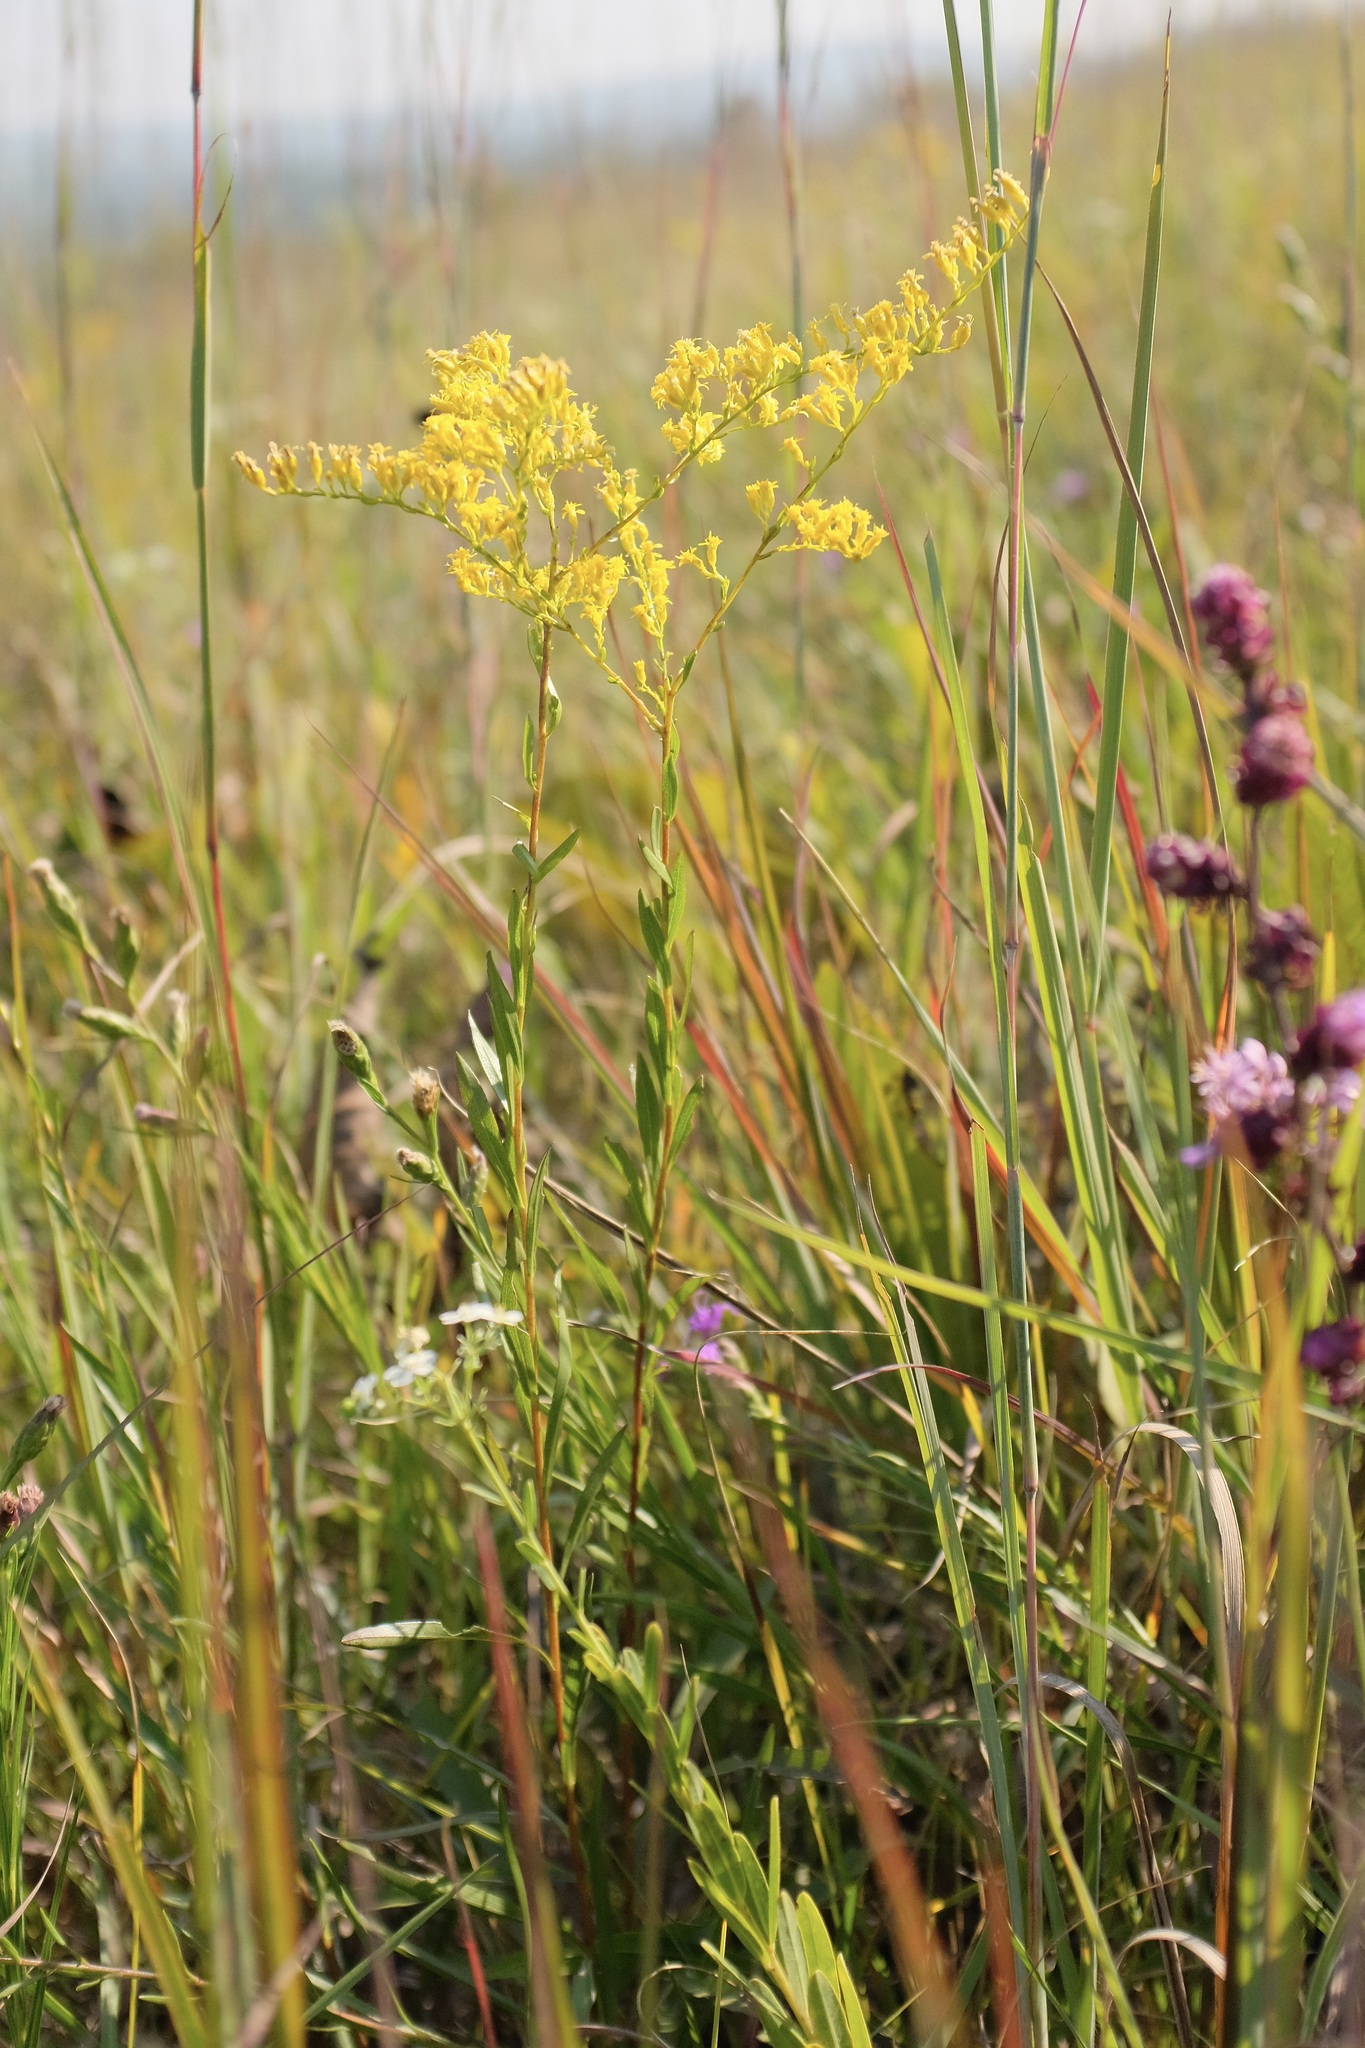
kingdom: Plantae
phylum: Tracheophyta
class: Magnoliopsida
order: Asterales
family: Asteraceae
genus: Solidago
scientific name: Solidago gattingeri
